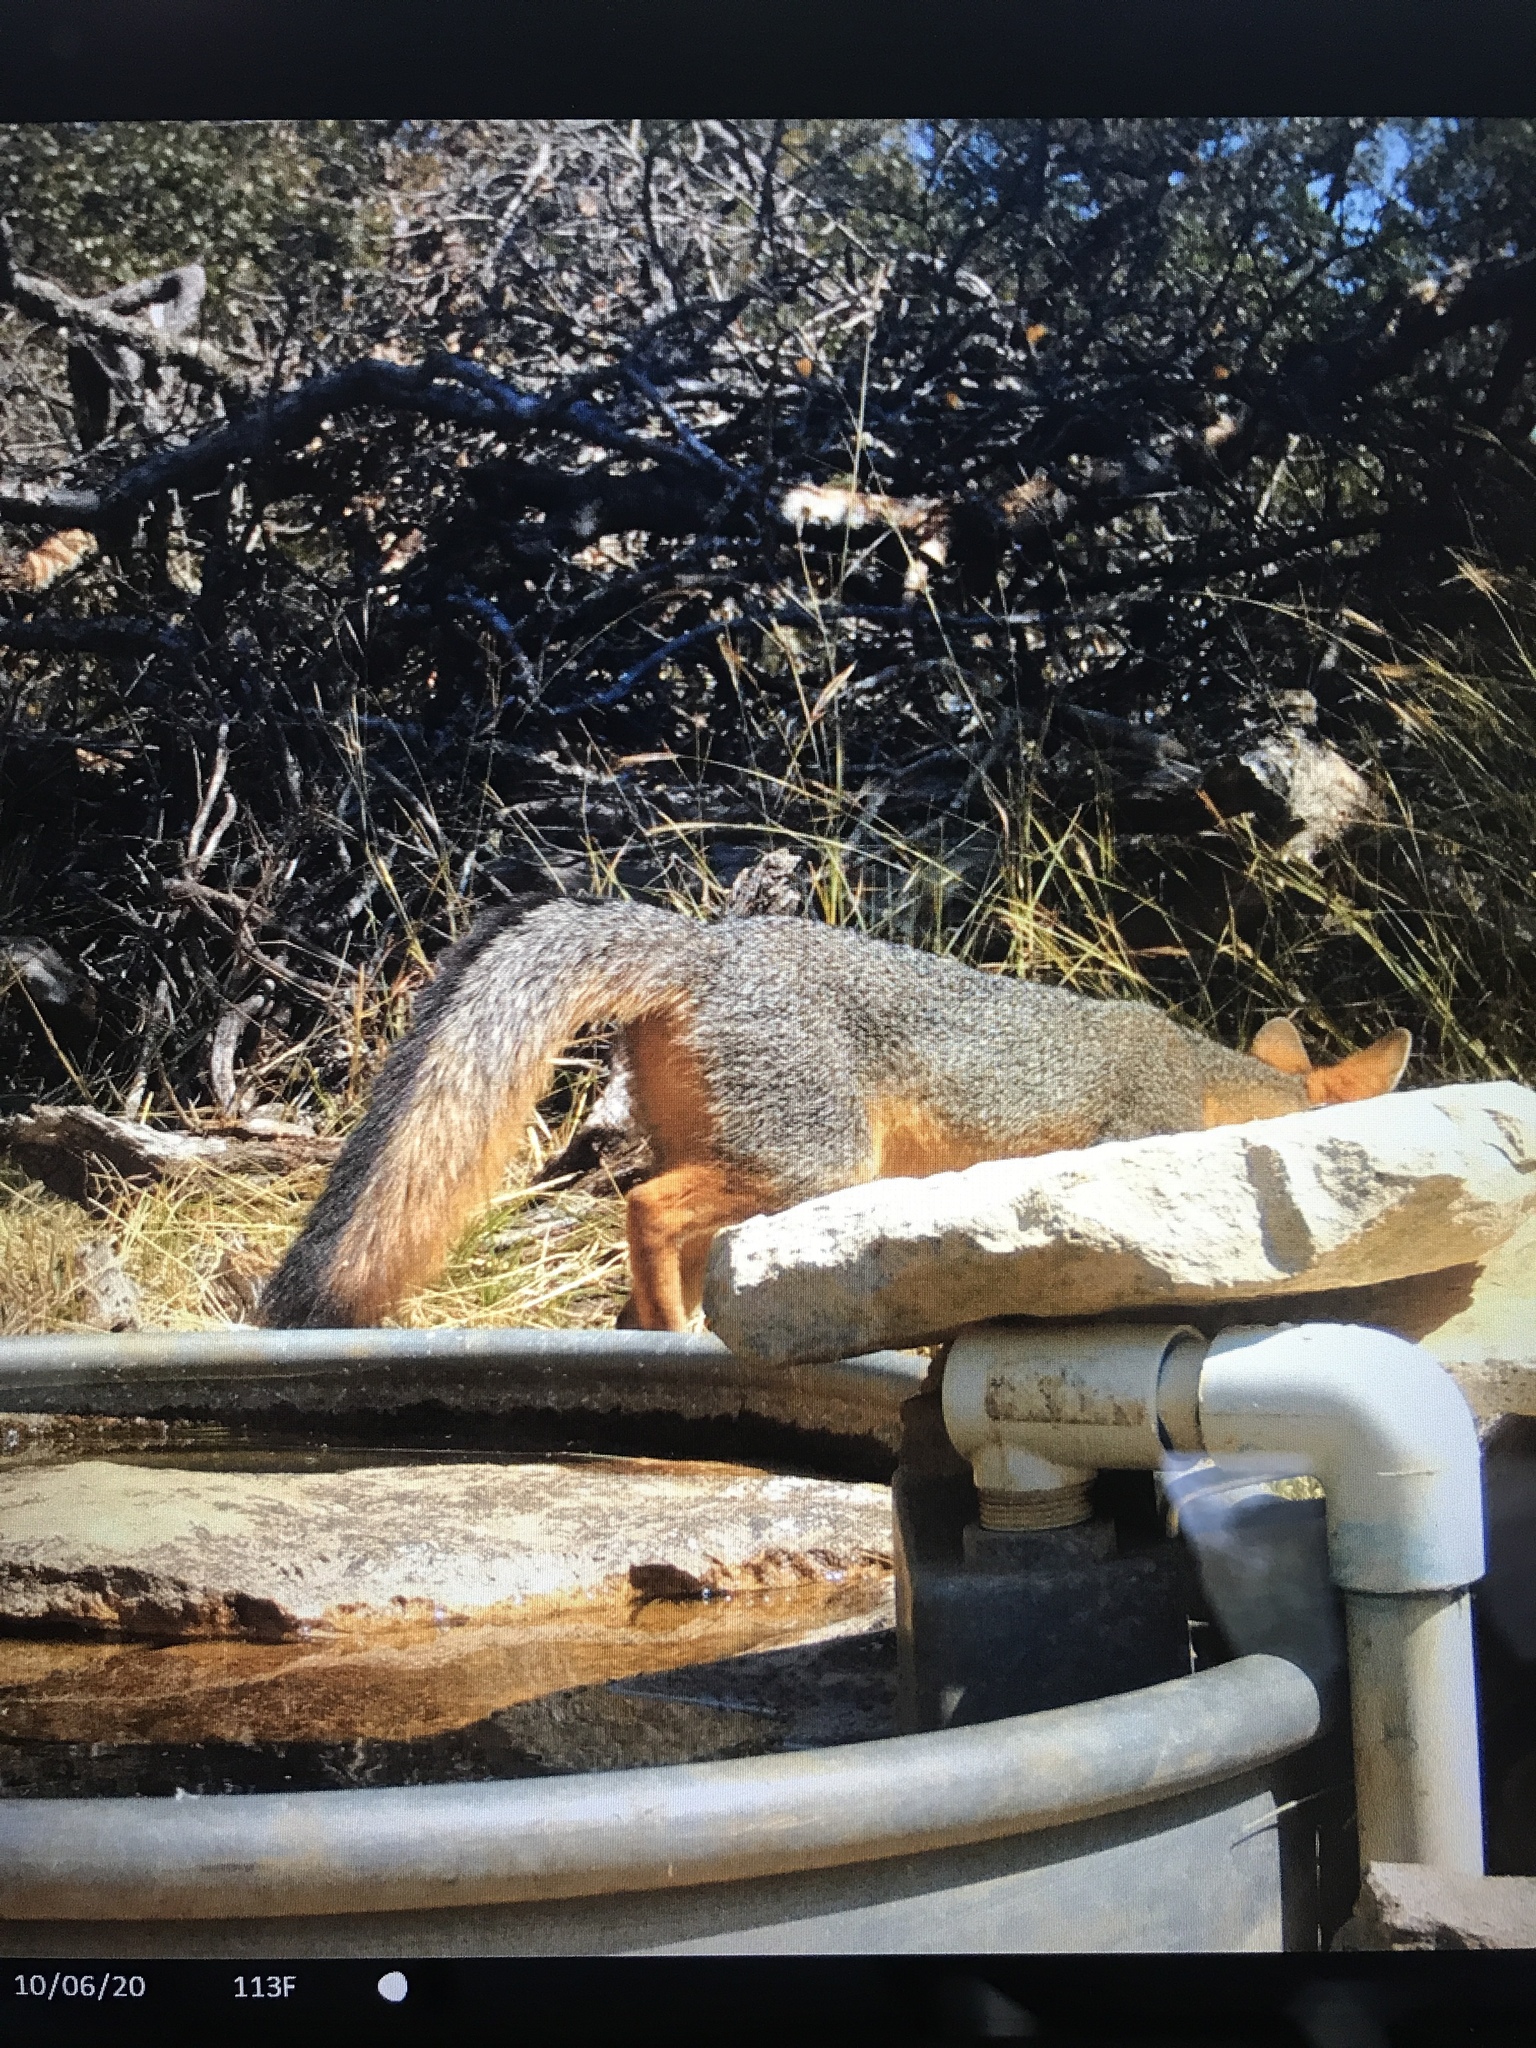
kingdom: Animalia
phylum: Chordata
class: Mammalia
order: Carnivora
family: Canidae
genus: Urocyon
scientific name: Urocyon cinereoargenteus
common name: Gray fox
